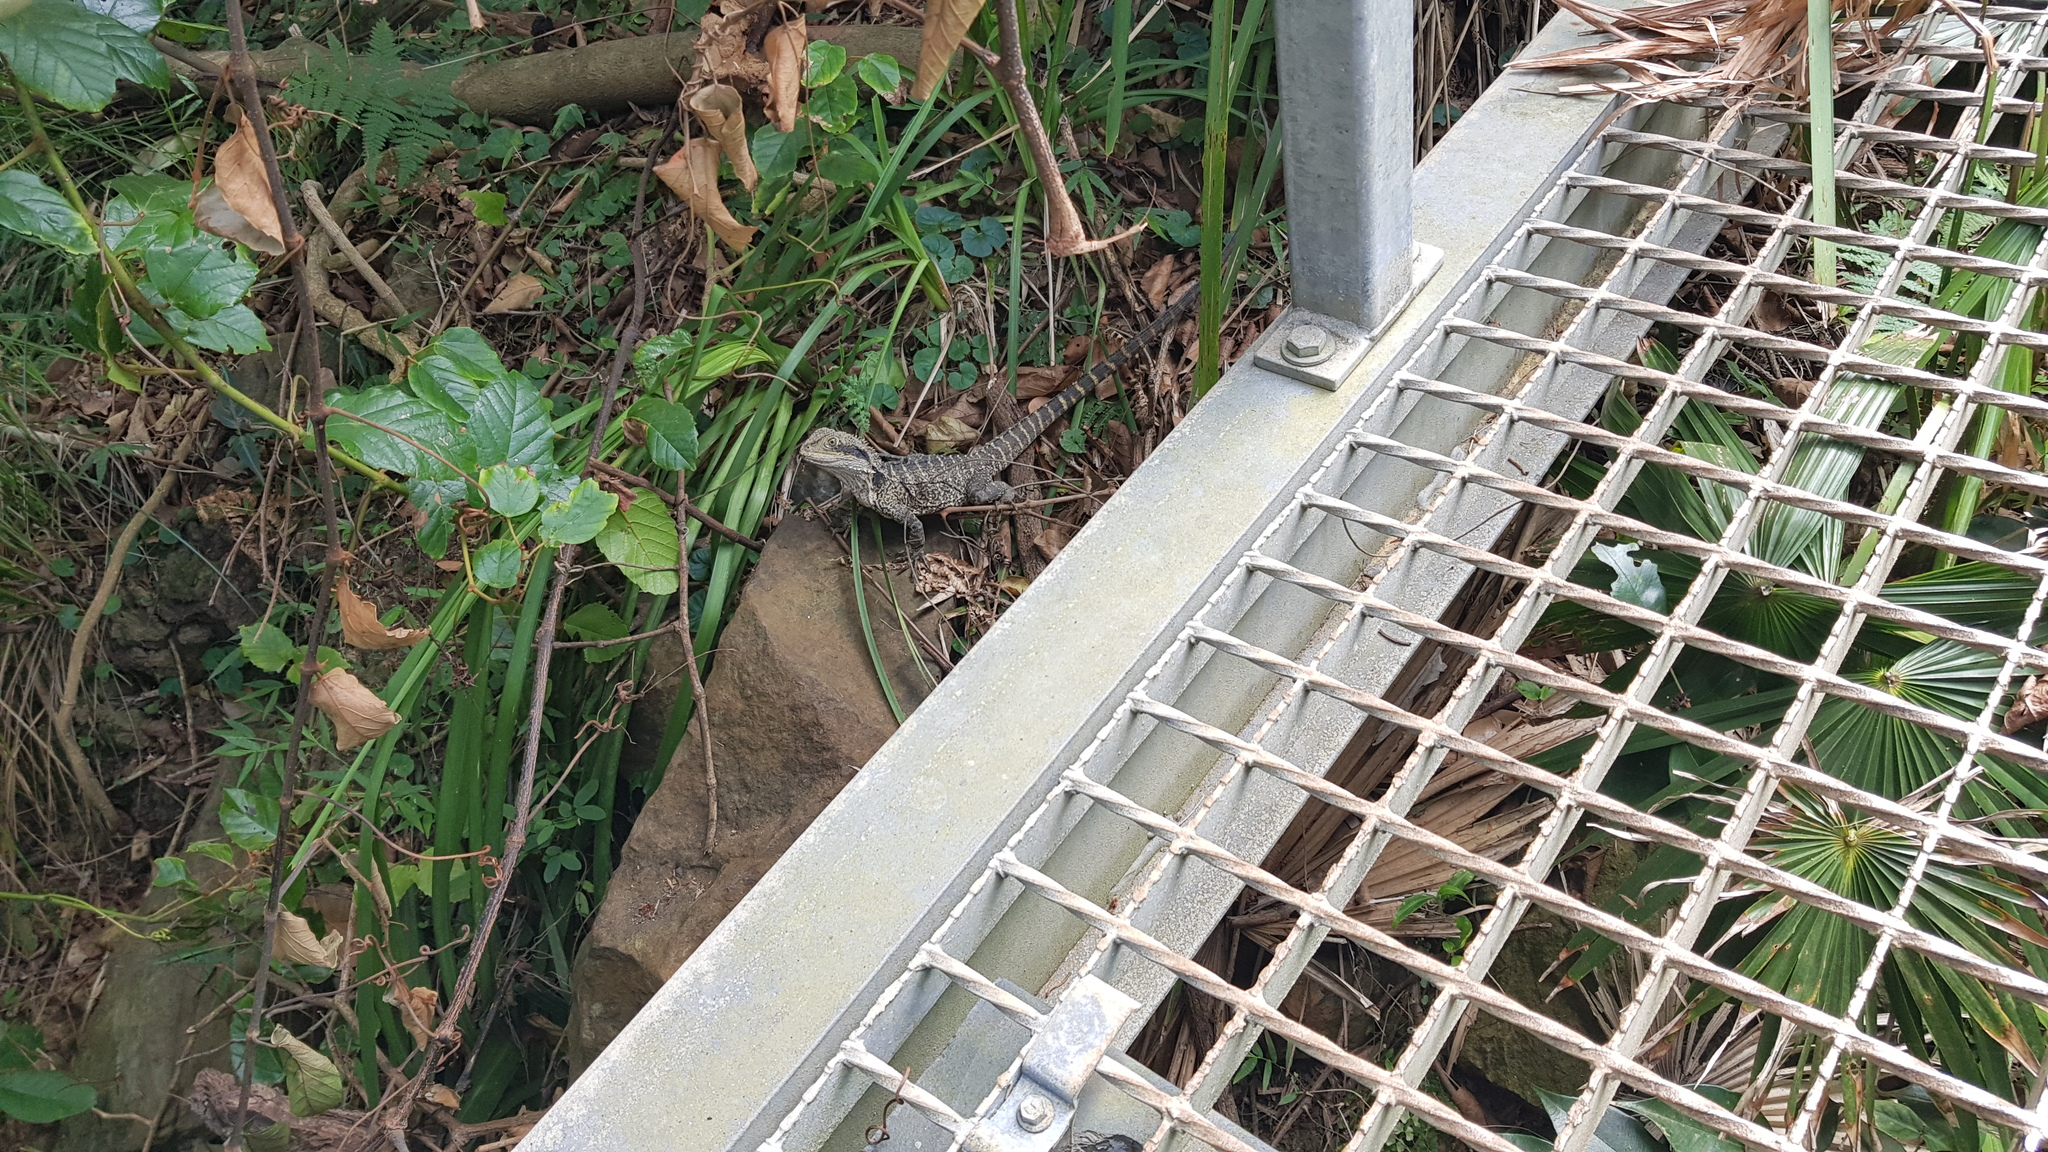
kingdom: Animalia
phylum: Chordata
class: Squamata
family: Agamidae
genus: Intellagama
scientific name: Intellagama lesueurii
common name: Eastern water dragon
